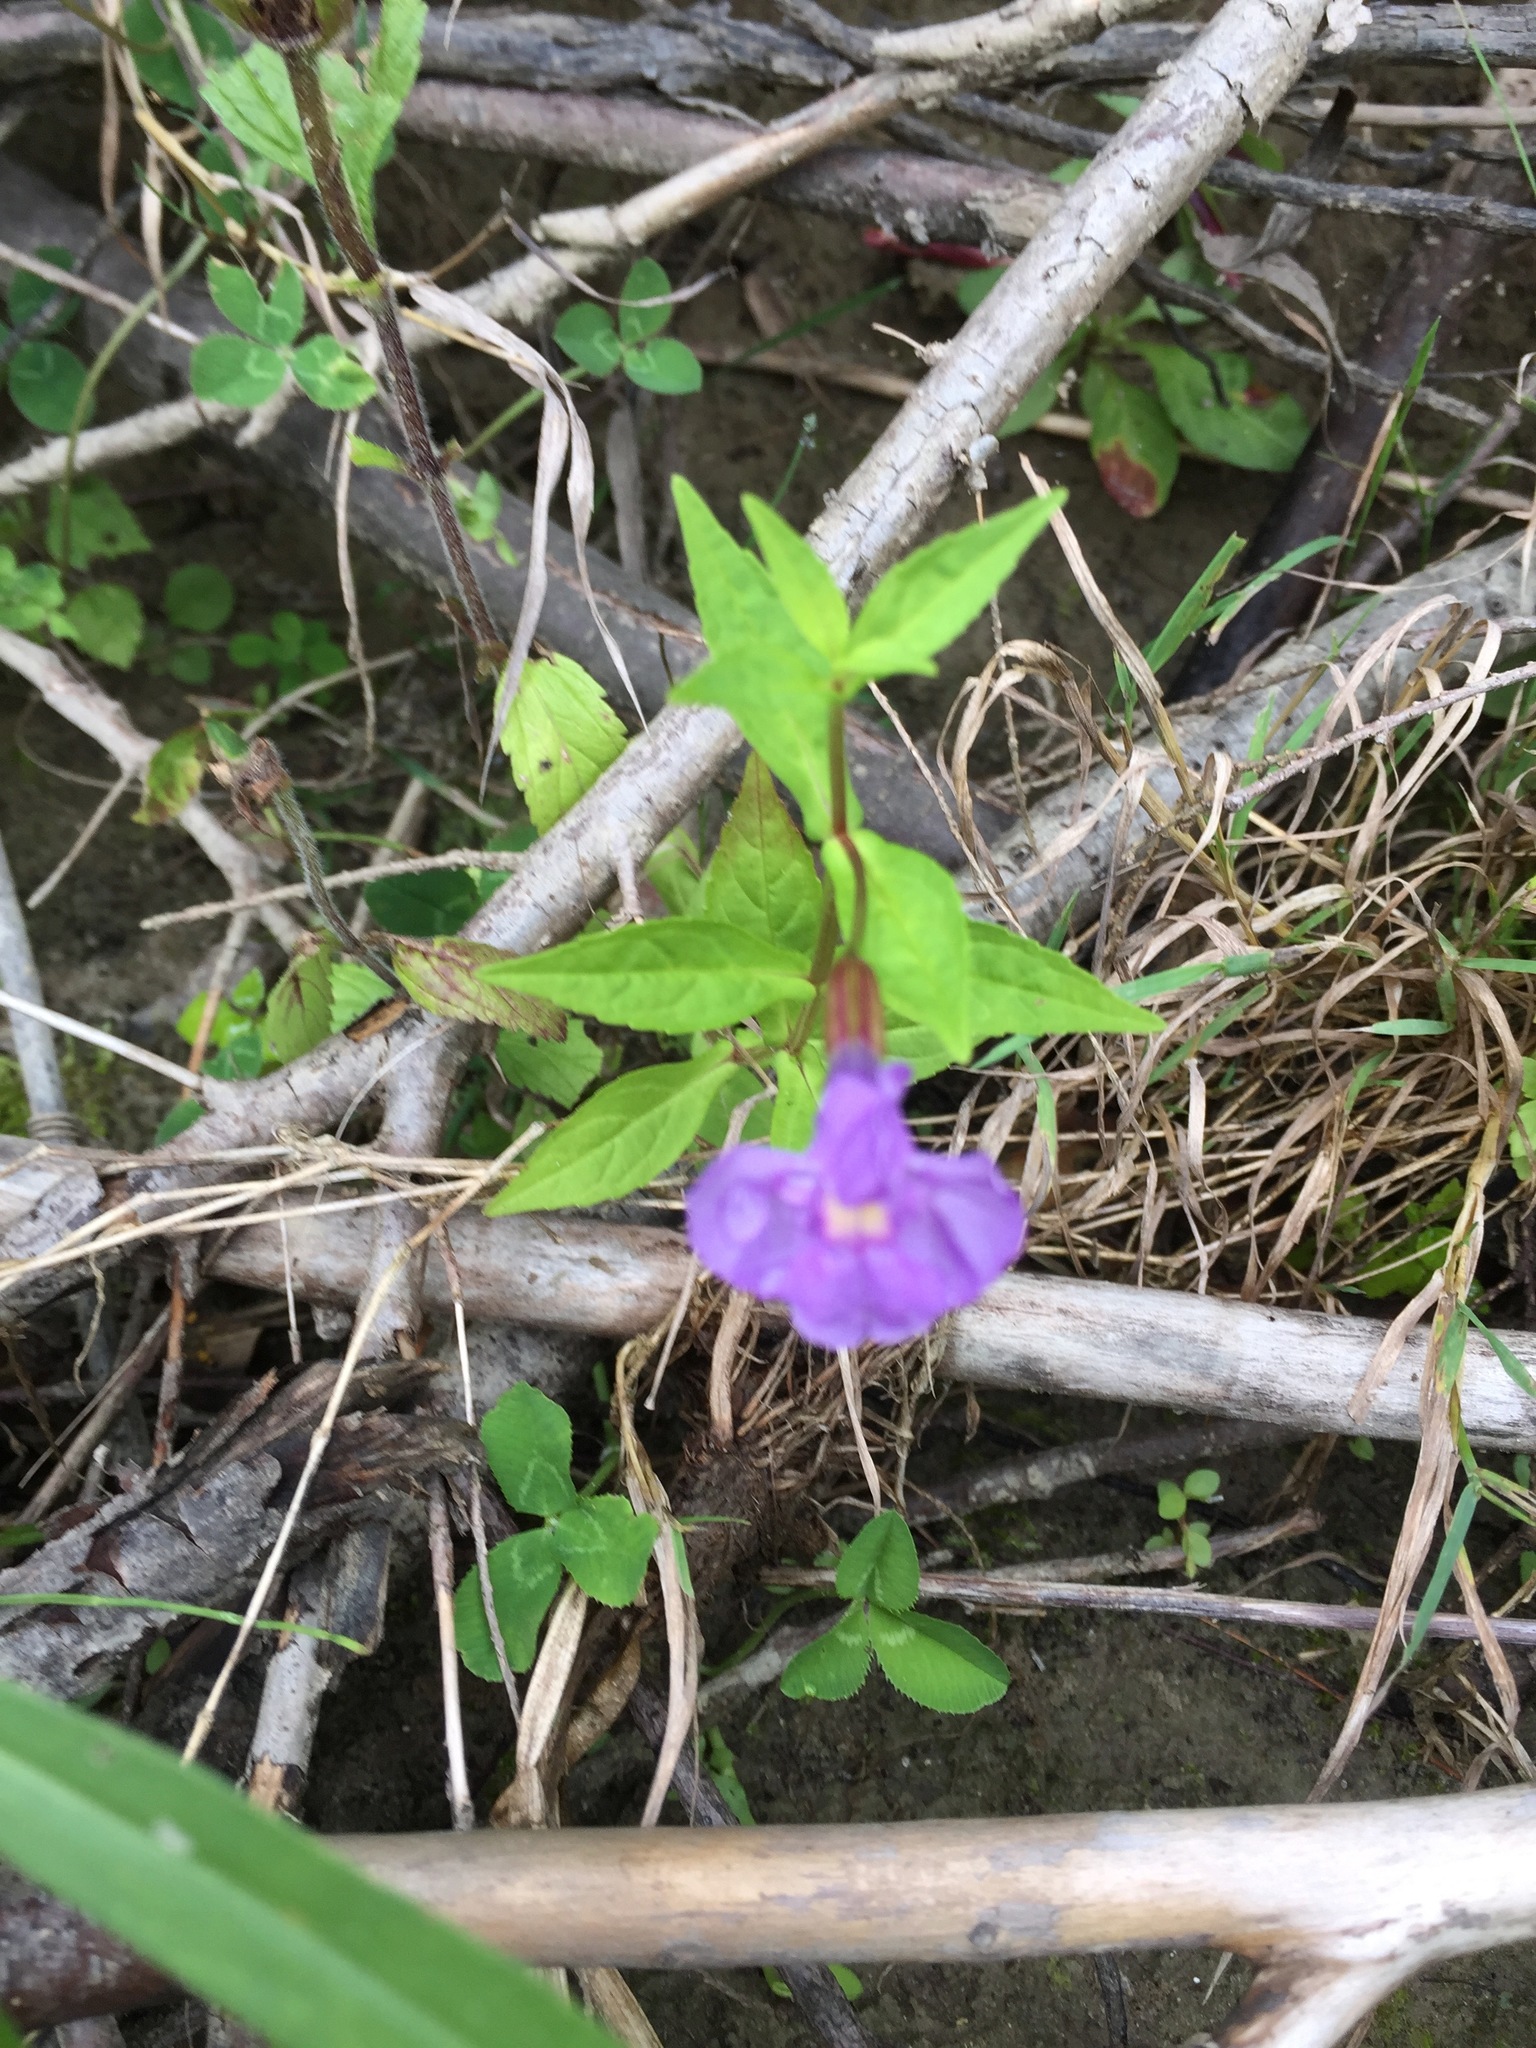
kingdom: Plantae
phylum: Tracheophyta
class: Magnoliopsida
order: Lamiales
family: Phrymaceae
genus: Mimulus
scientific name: Mimulus ringens
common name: Allegheny monkeyflower
